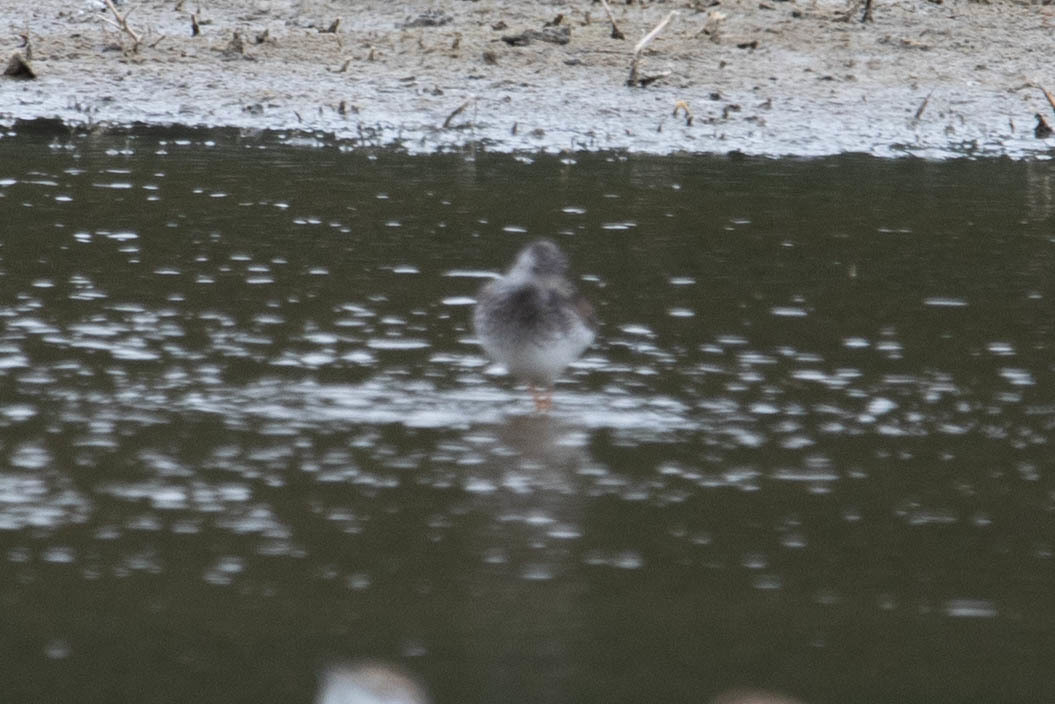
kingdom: Animalia
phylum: Chordata
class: Aves
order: Charadriiformes
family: Scolopacidae
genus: Tringa
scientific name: Tringa flavipes
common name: Lesser yellowlegs
